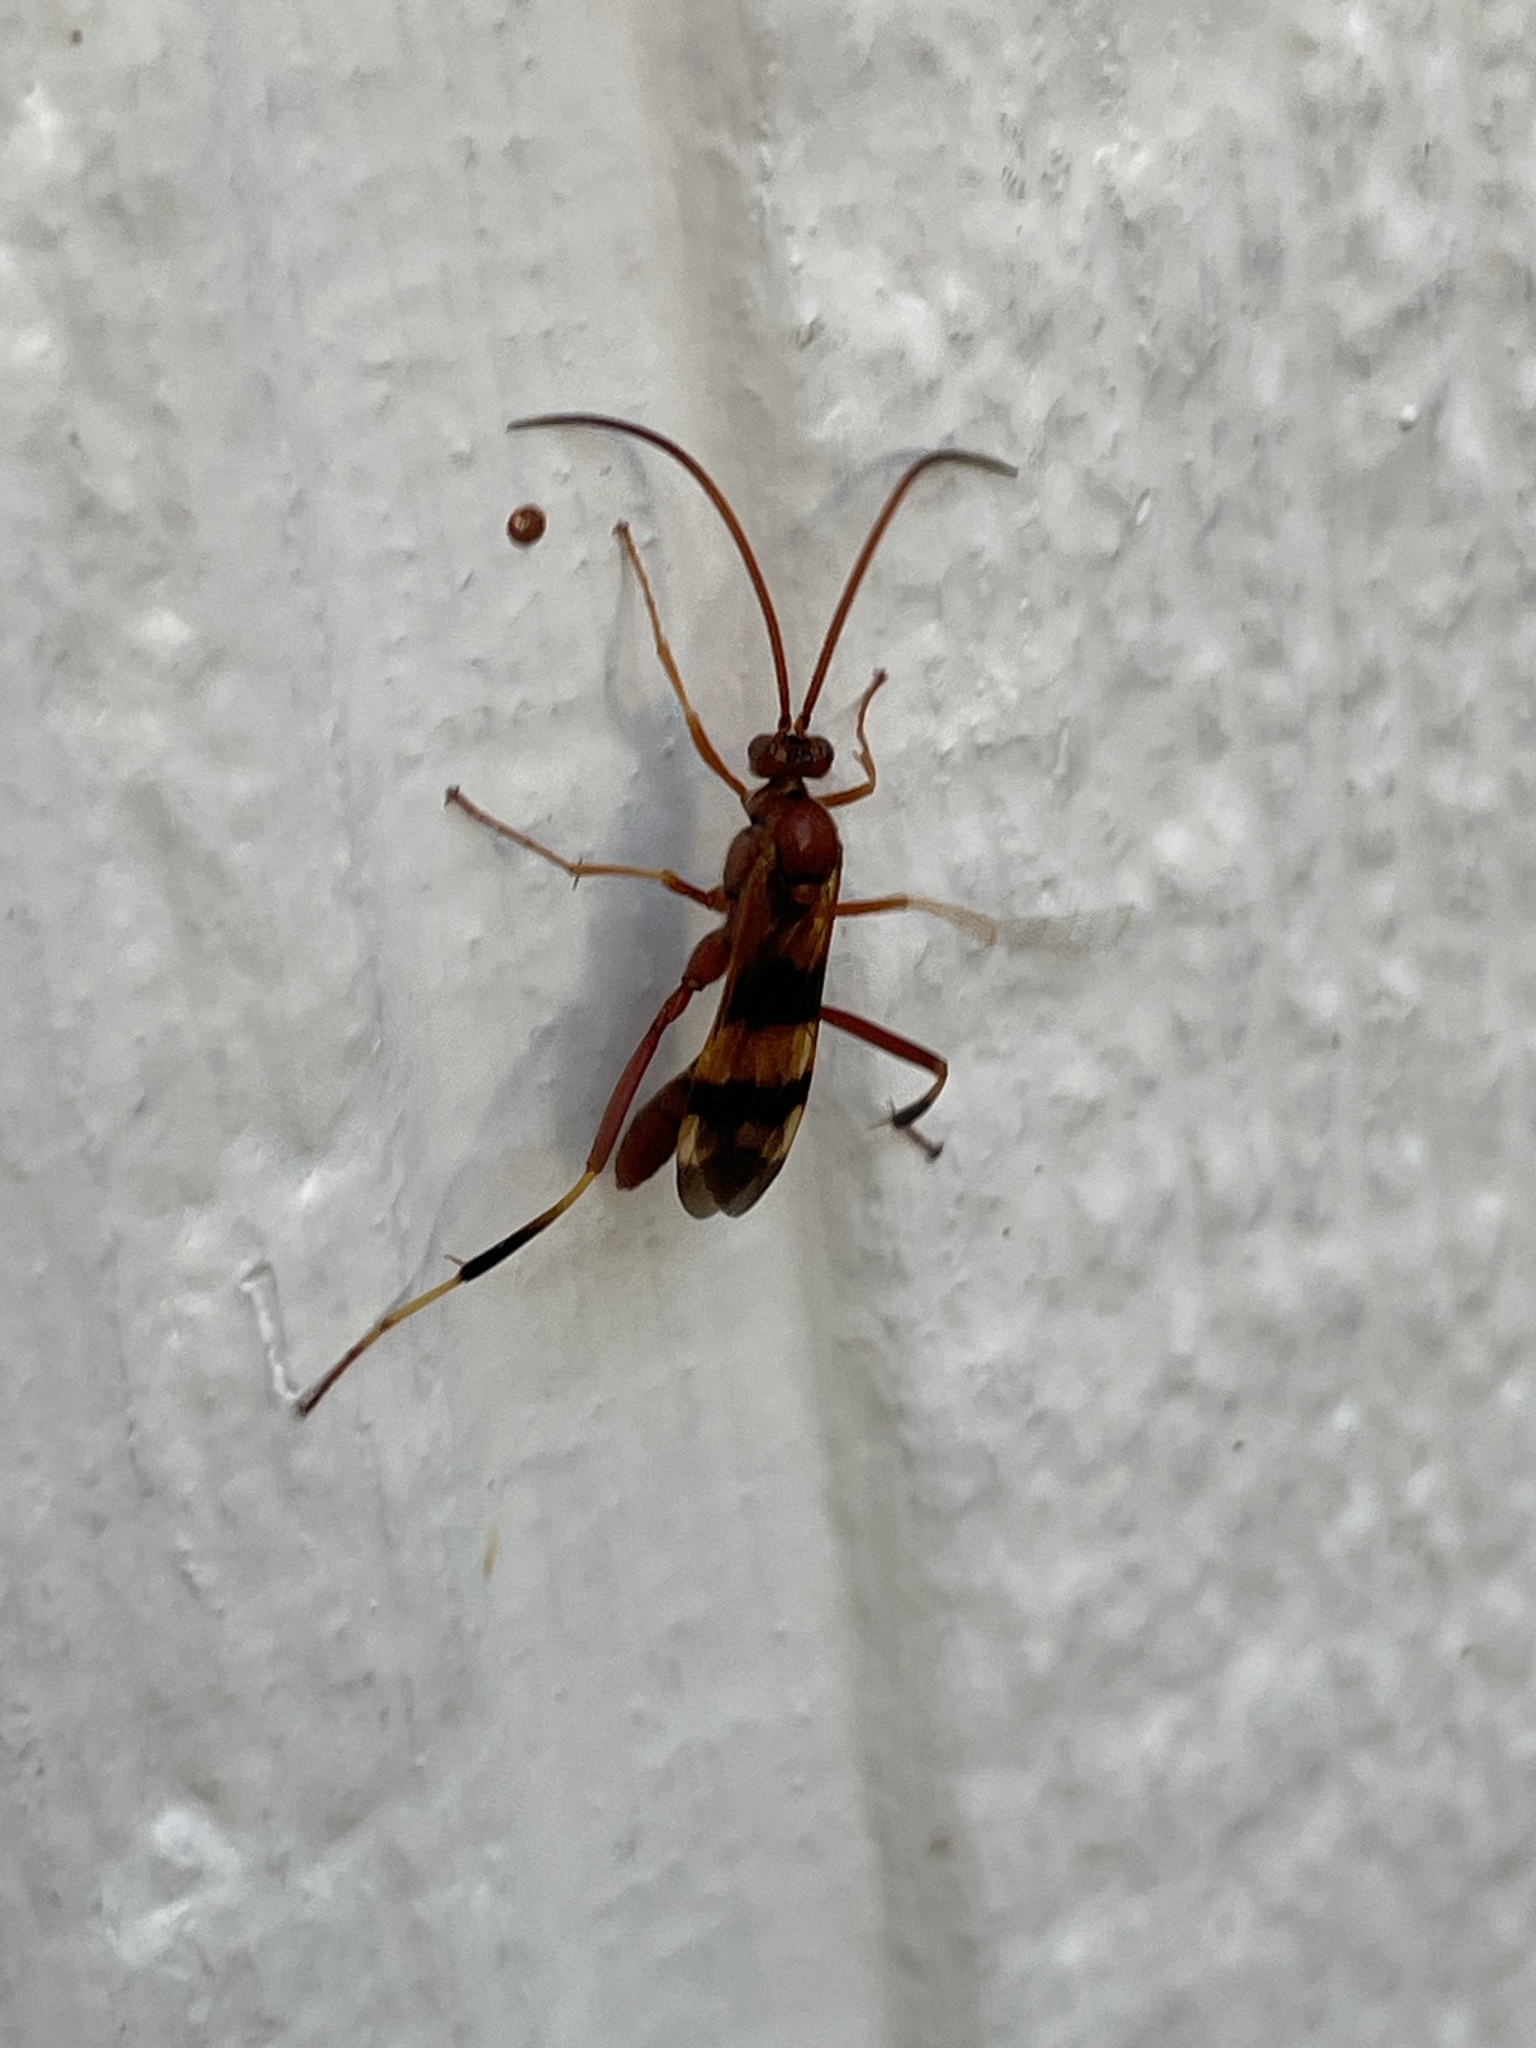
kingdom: Animalia
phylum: Arthropoda
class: Insecta
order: Hymenoptera
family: Ichneumonidae
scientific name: Ichneumonidae
